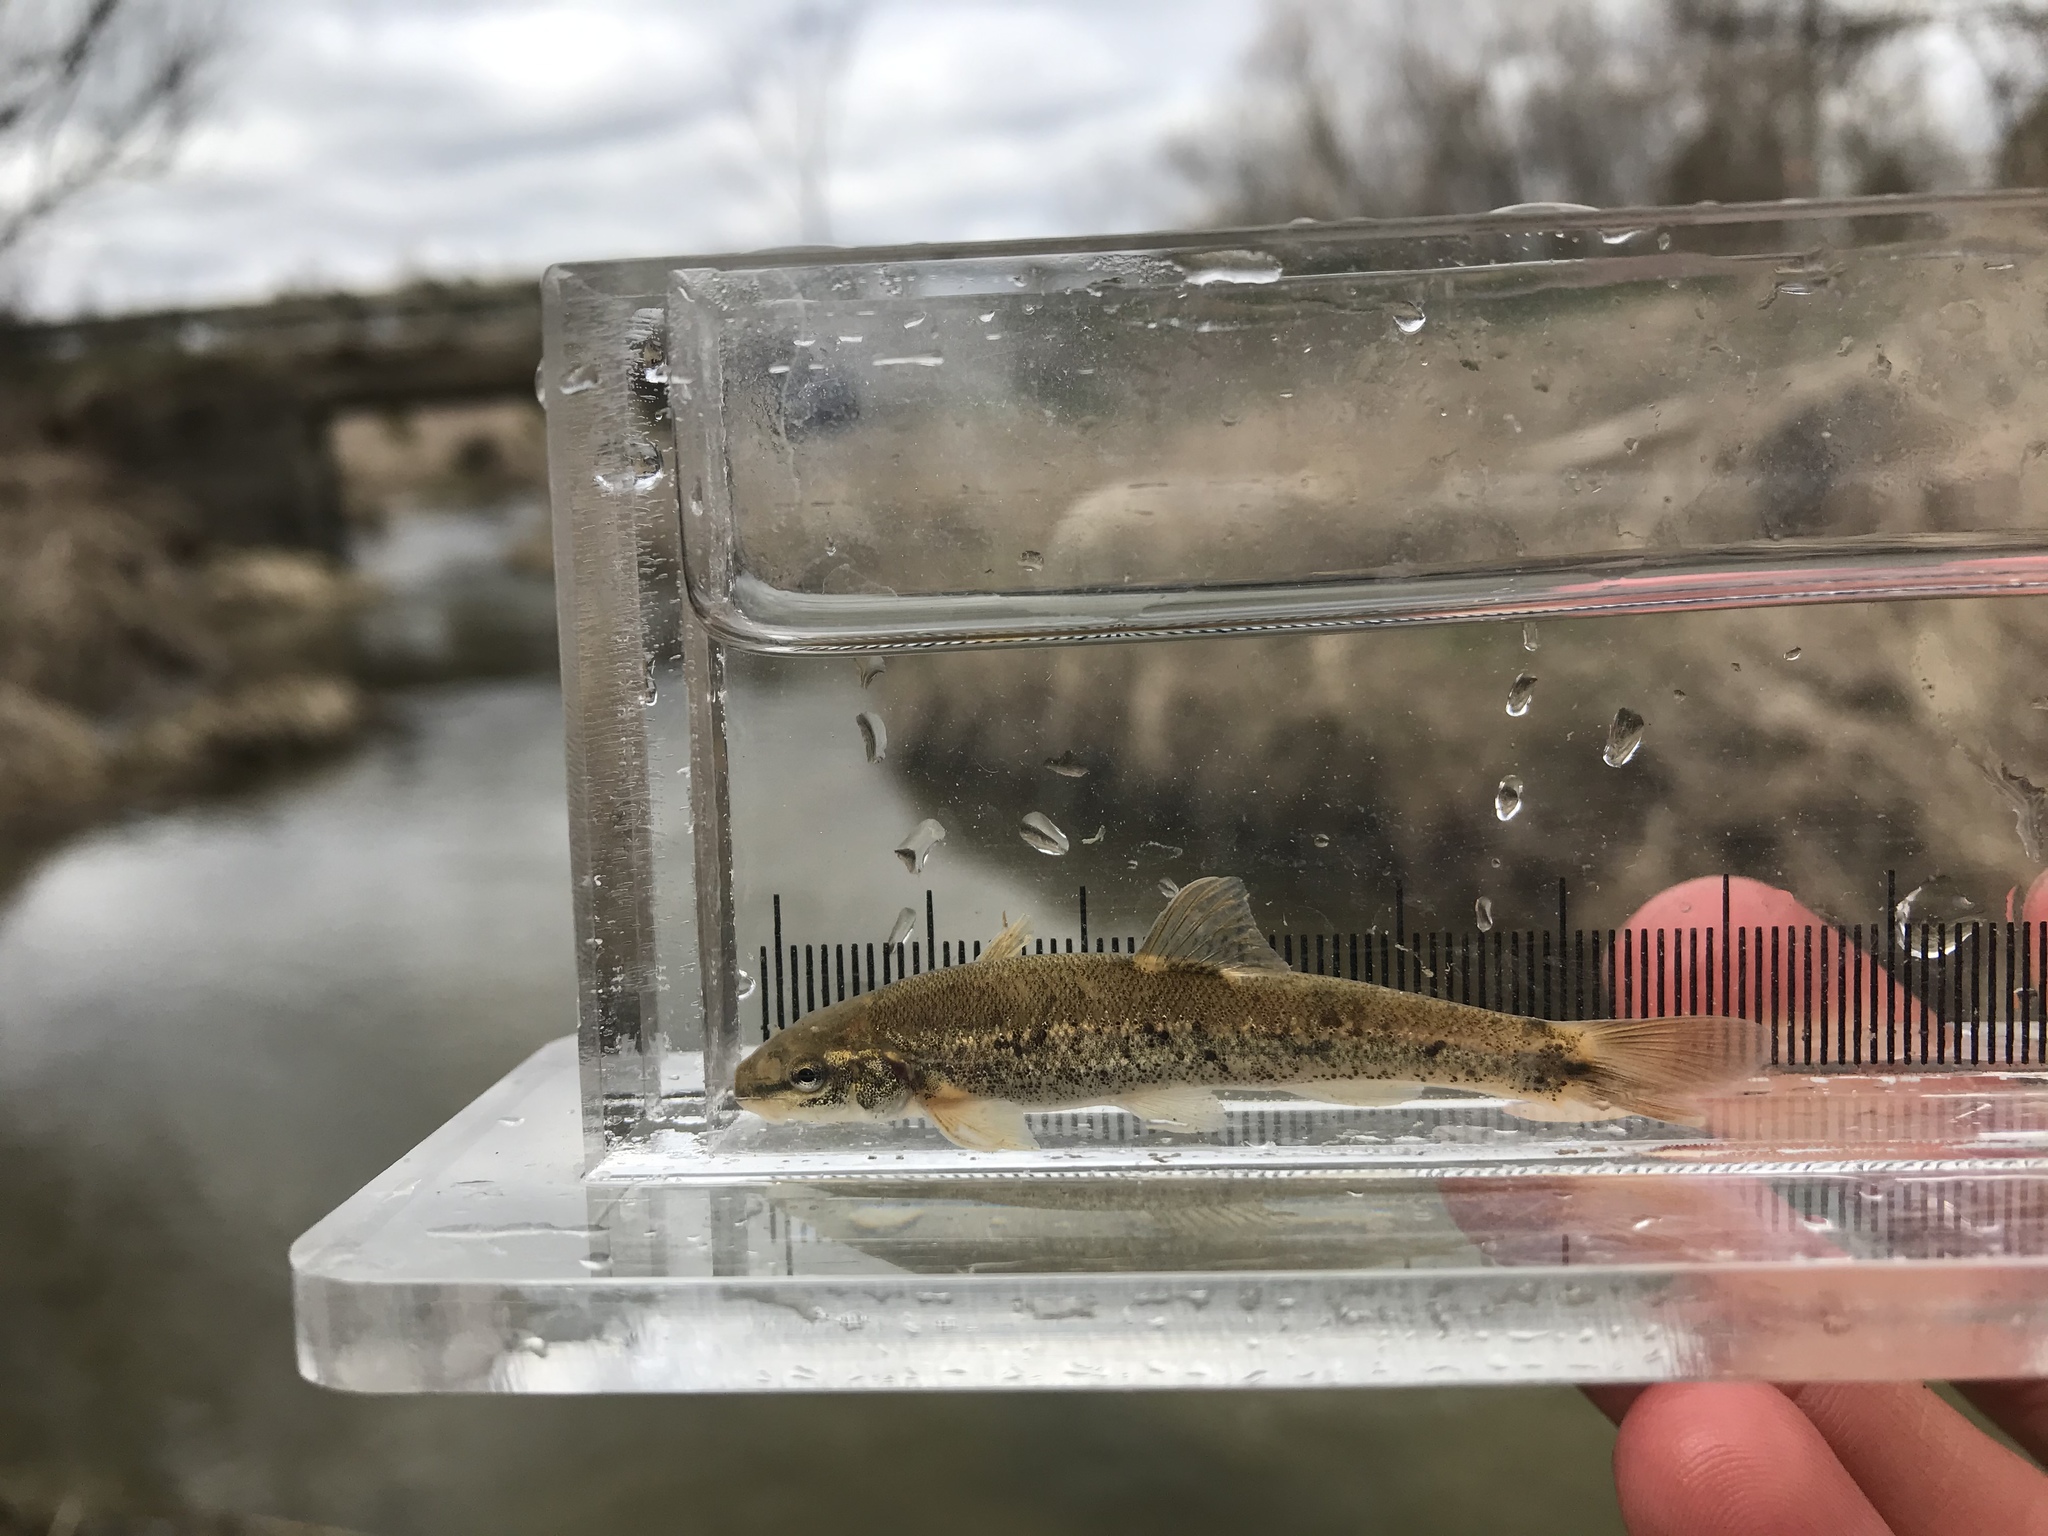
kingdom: Animalia
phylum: Chordata
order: Cypriniformes
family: Cyprinidae
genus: Rhinichthys
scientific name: Rhinichthys cataractae
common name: Longnose dace
